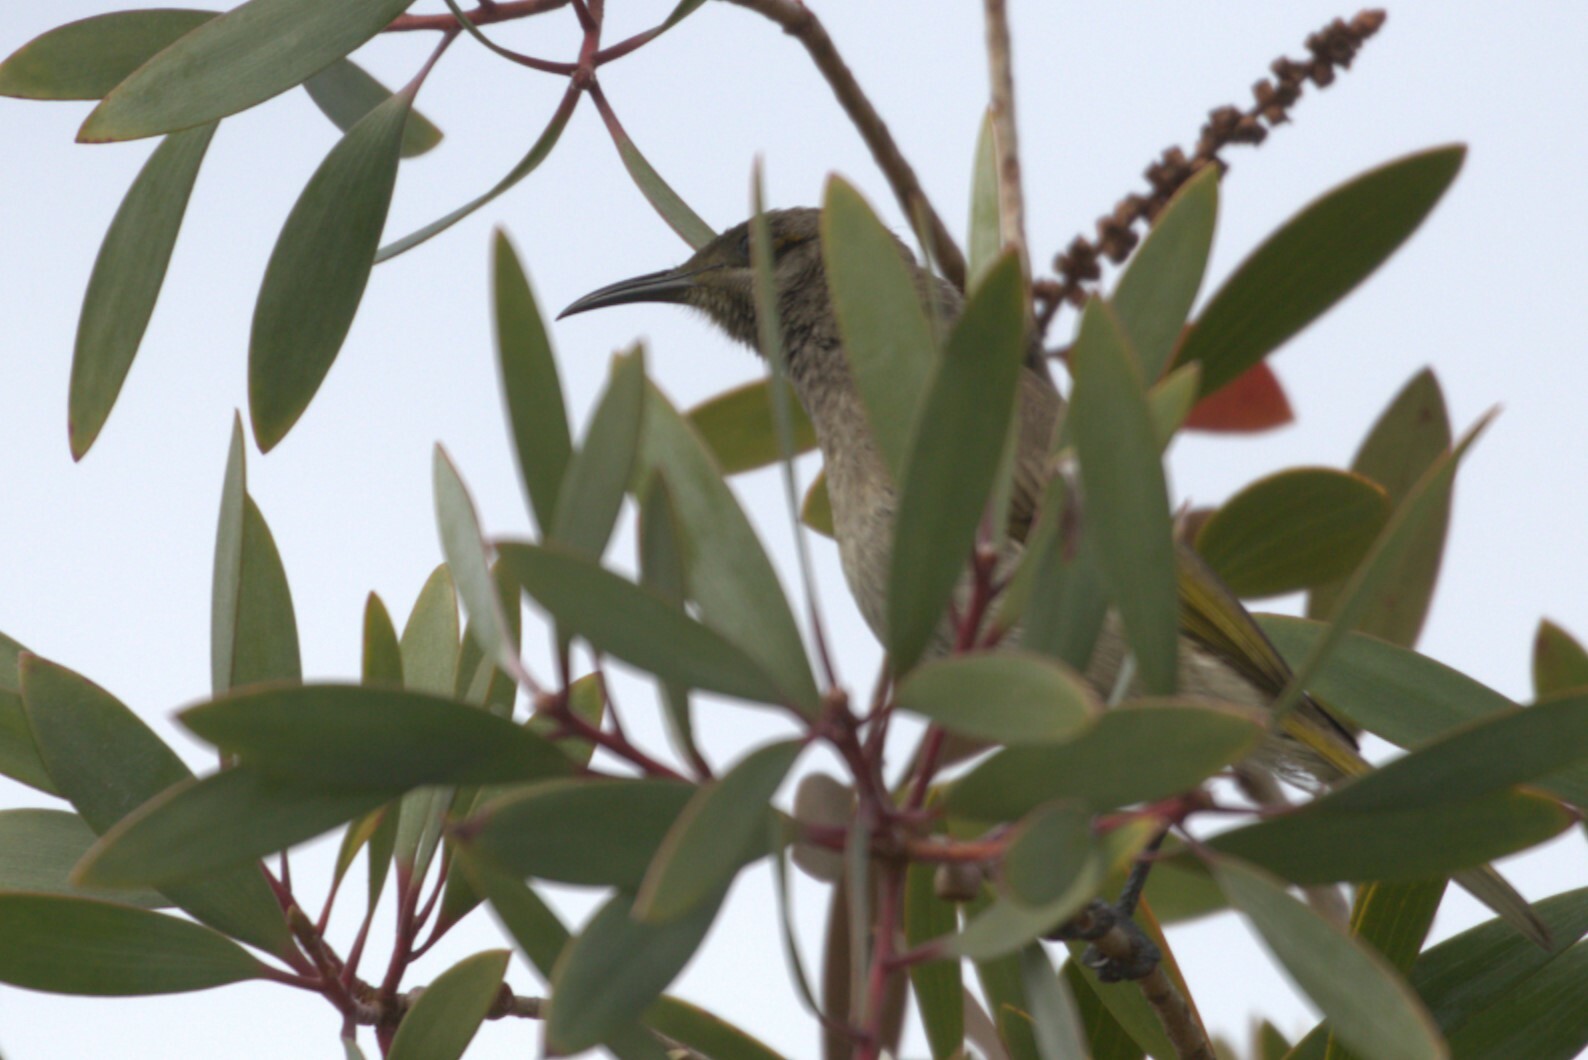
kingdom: Animalia
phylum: Chordata
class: Aves
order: Passeriformes
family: Meliphagidae
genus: Lichmera
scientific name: Lichmera indistincta
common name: Brown honeyeater
